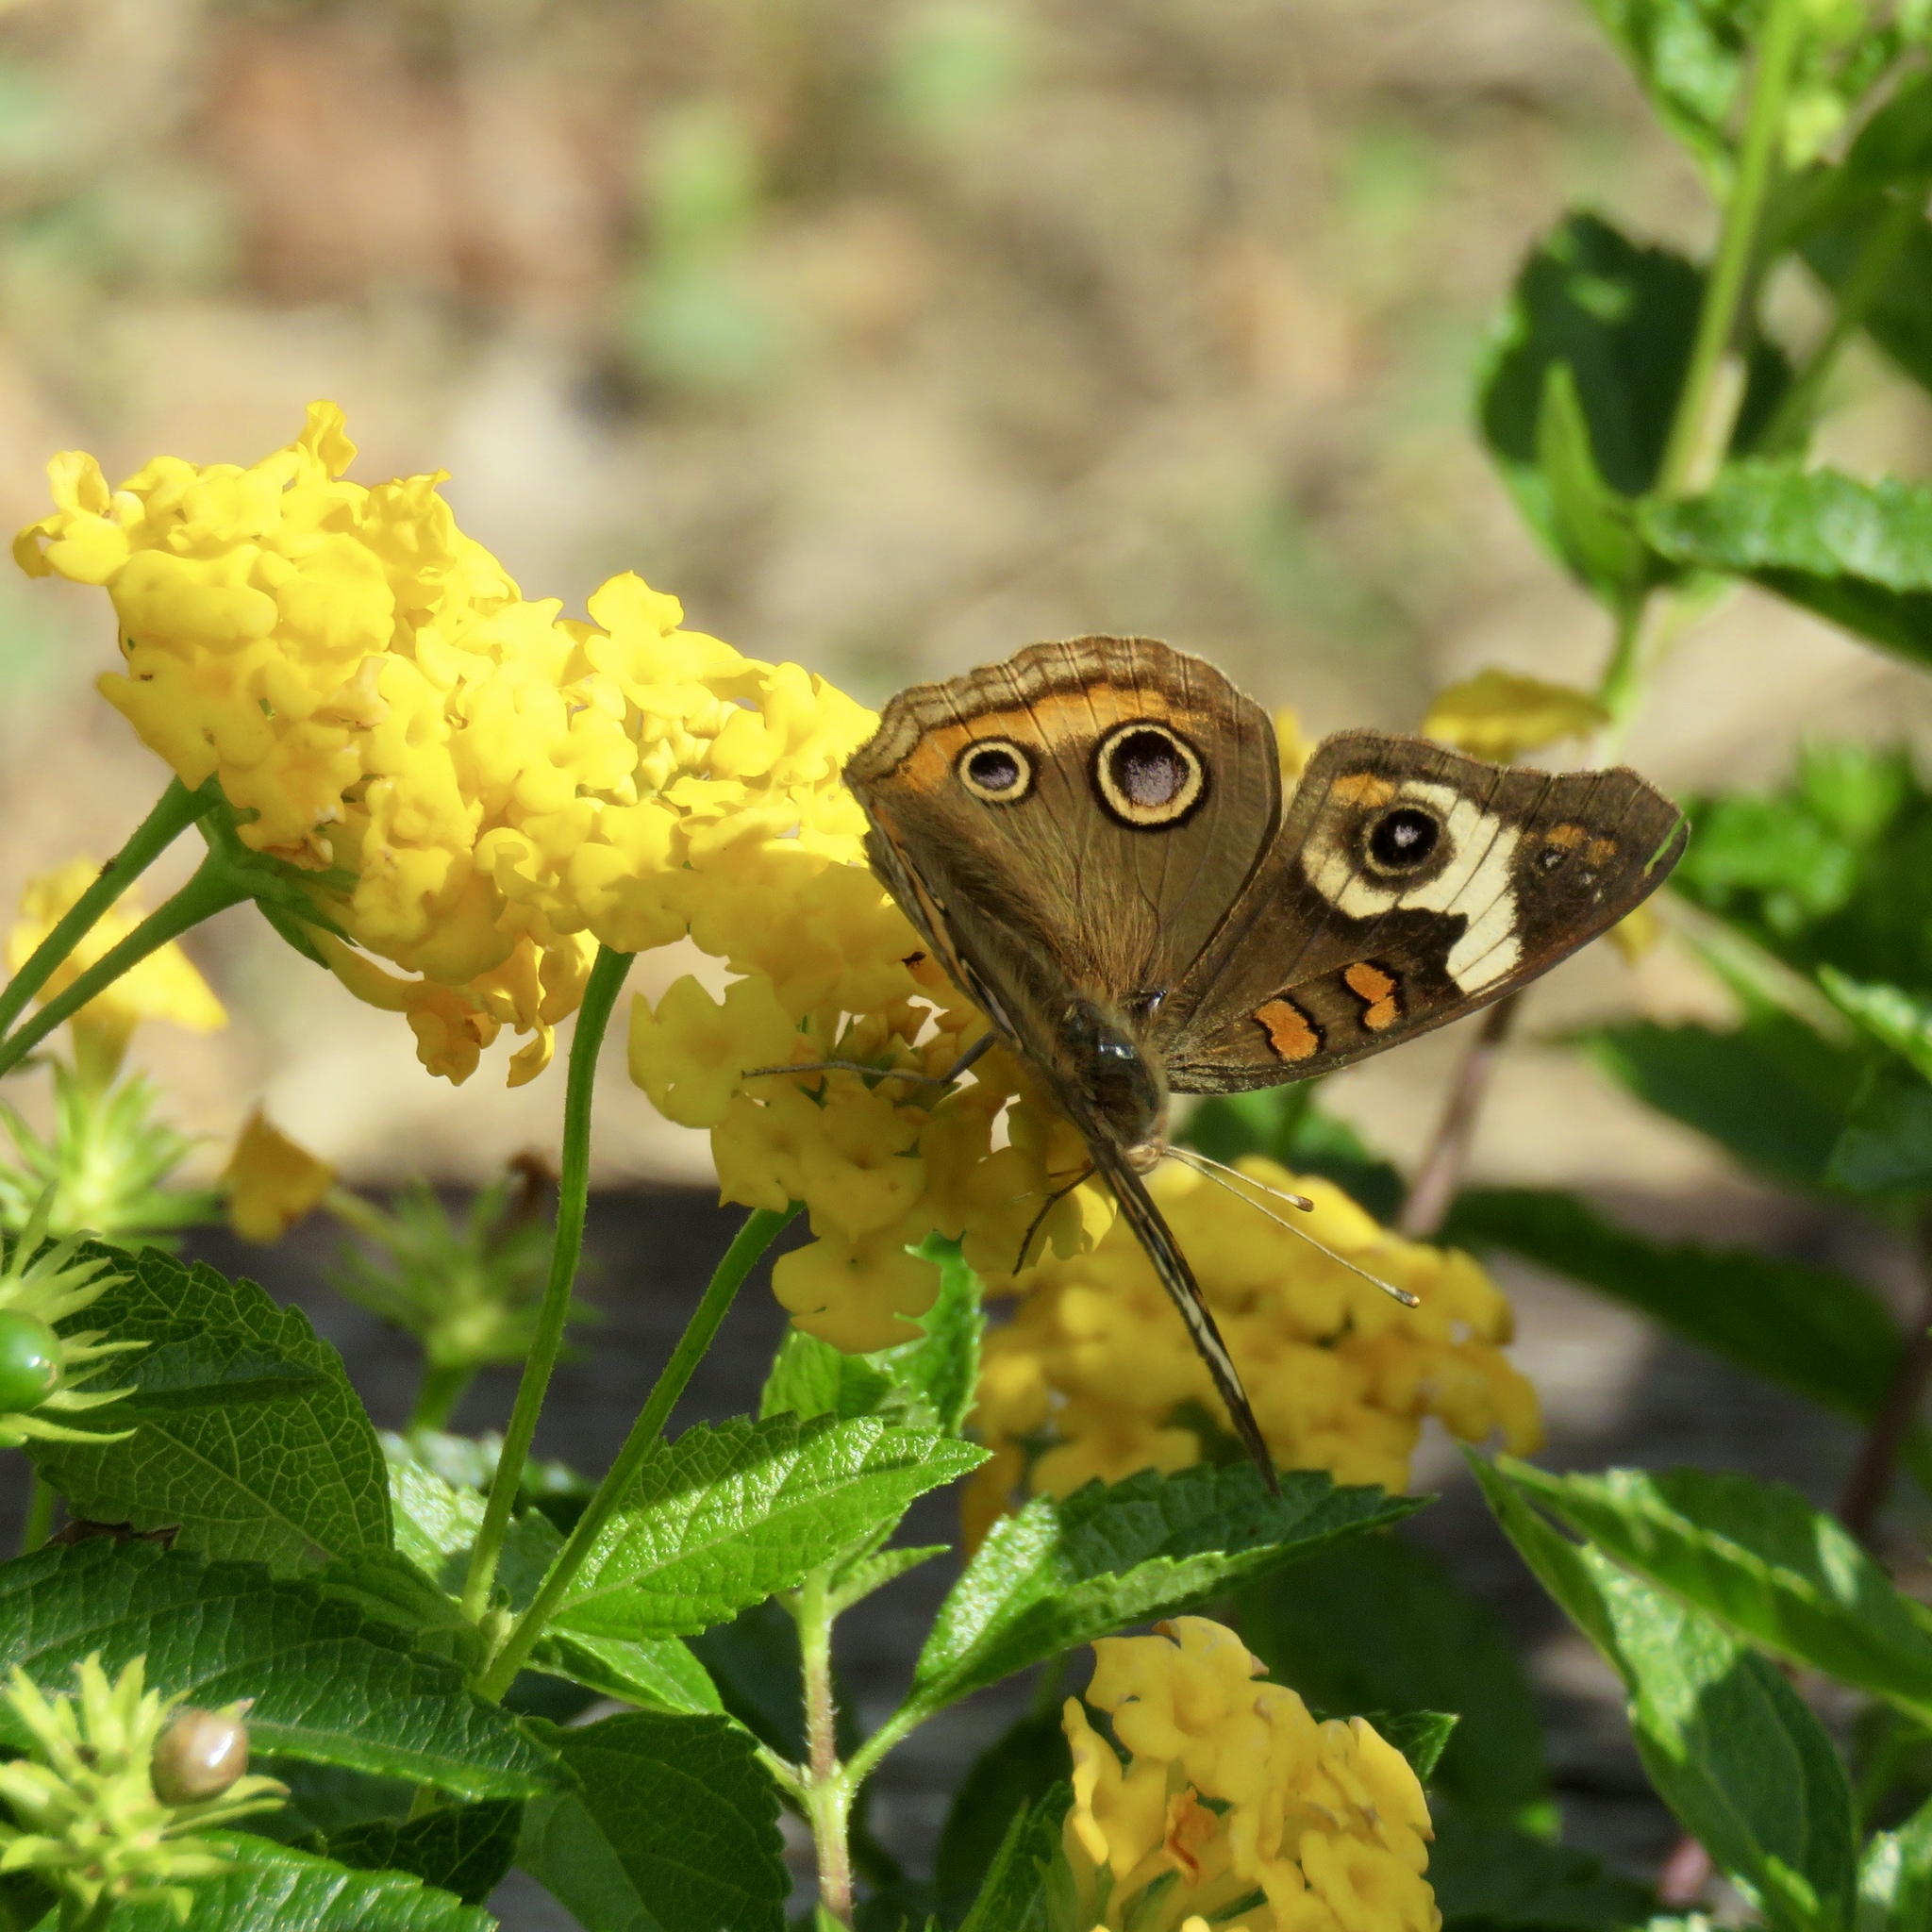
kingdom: Animalia
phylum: Arthropoda
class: Insecta
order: Lepidoptera
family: Nymphalidae
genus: Junonia
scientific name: Junonia coenia
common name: Common buckeye
